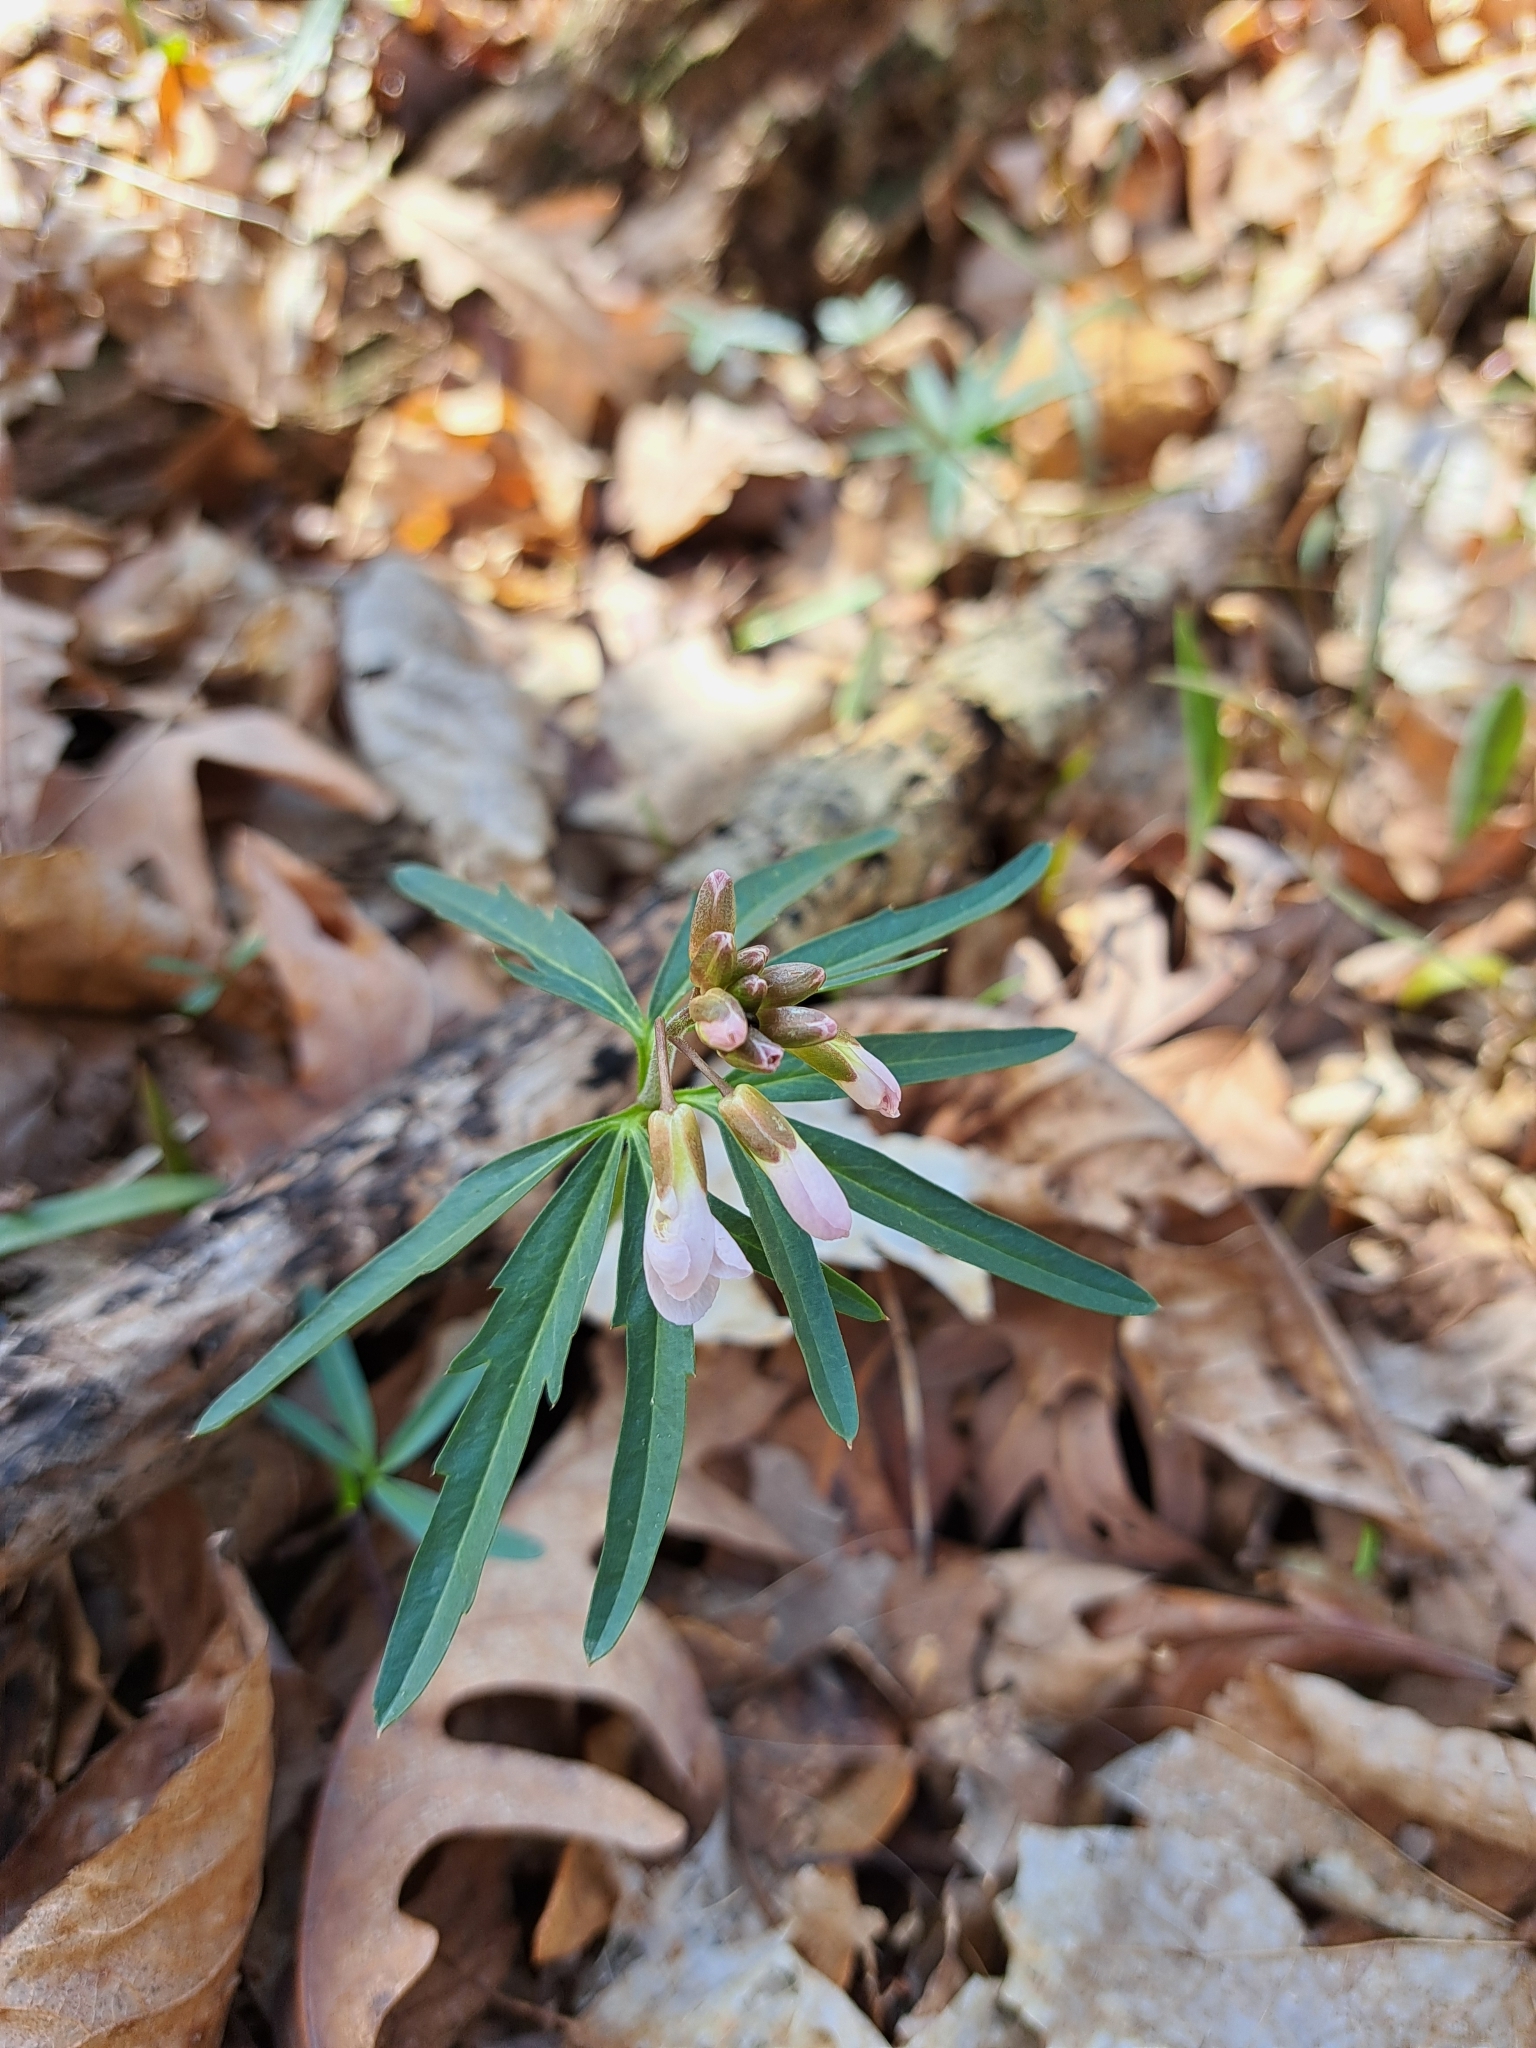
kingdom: Plantae
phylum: Tracheophyta
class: Magnoliopsida
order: Brassicales
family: Brassicaceae
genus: Cardamine
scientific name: Cardamine concatenata
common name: Cut-leaf toothcup
